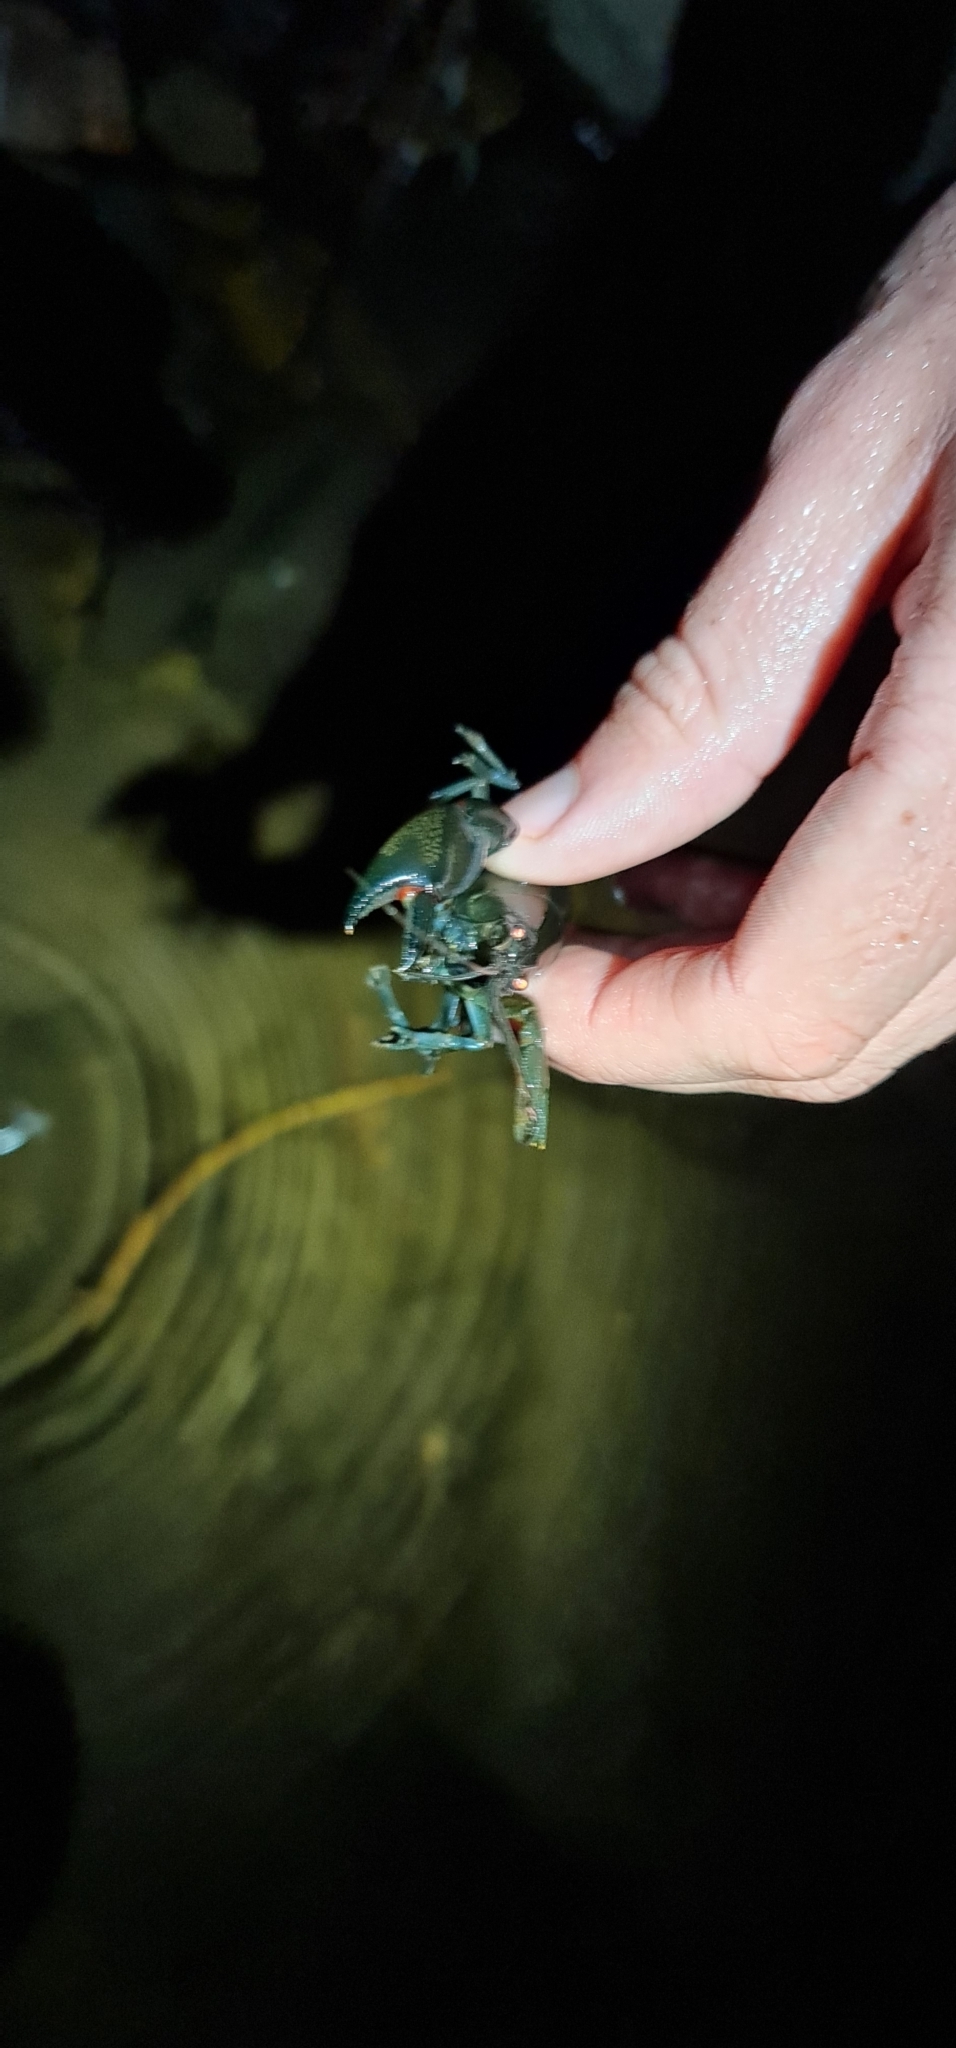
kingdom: Animalia
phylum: Arthropoda
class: Malacostraca
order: Decapoda
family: Parastacidae
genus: Cherax
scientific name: Cherax destructor
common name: Yabby
